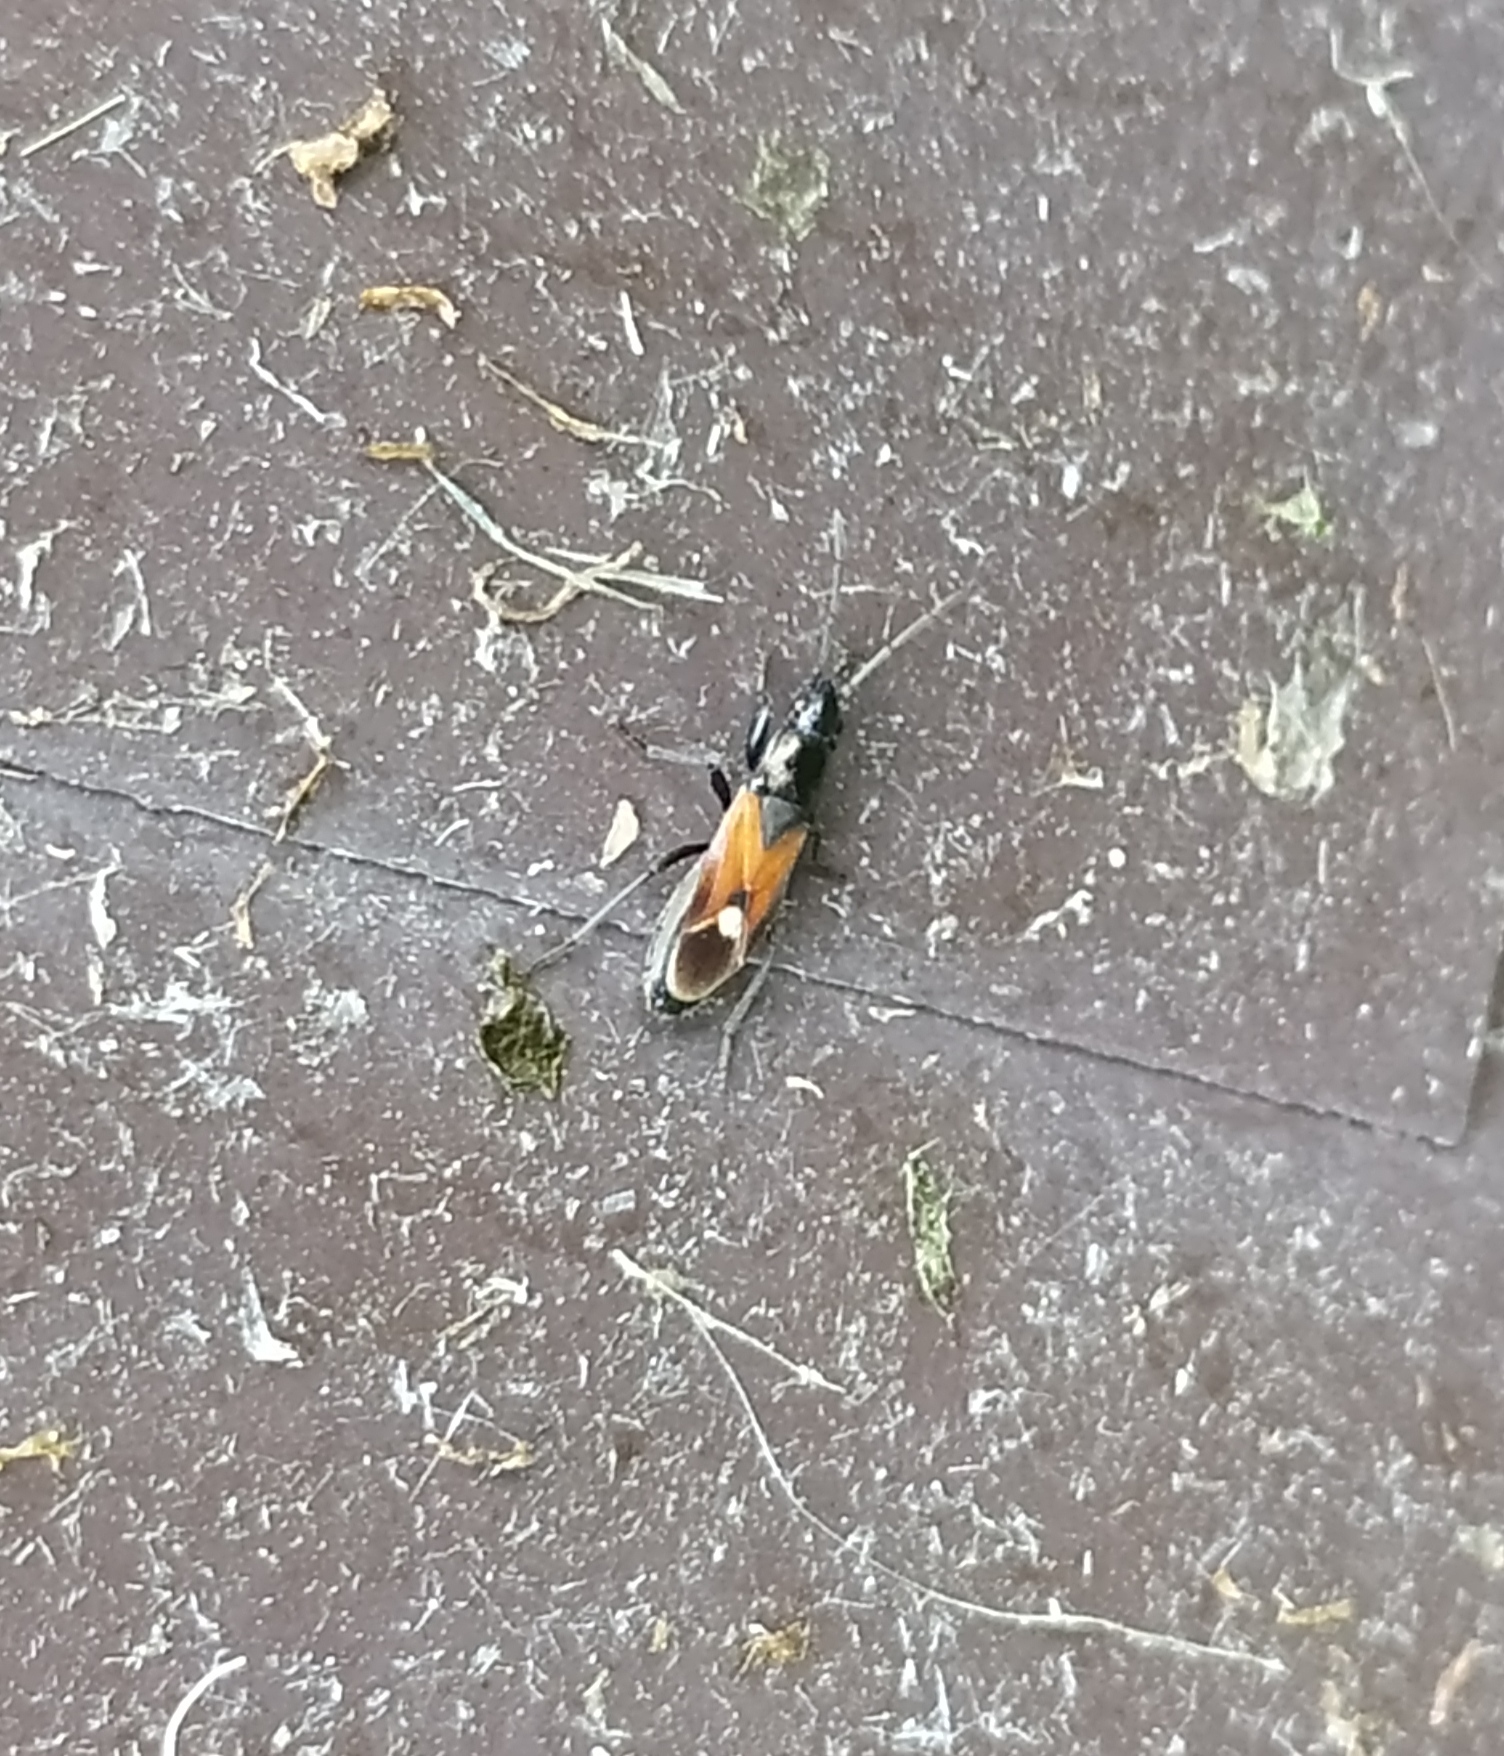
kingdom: Animalia
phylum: Arthropoda
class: Insecta
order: Hemiptera
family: Rhyparochromidae
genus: Pterotmetus
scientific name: Pterotmetus staphyliniformis
